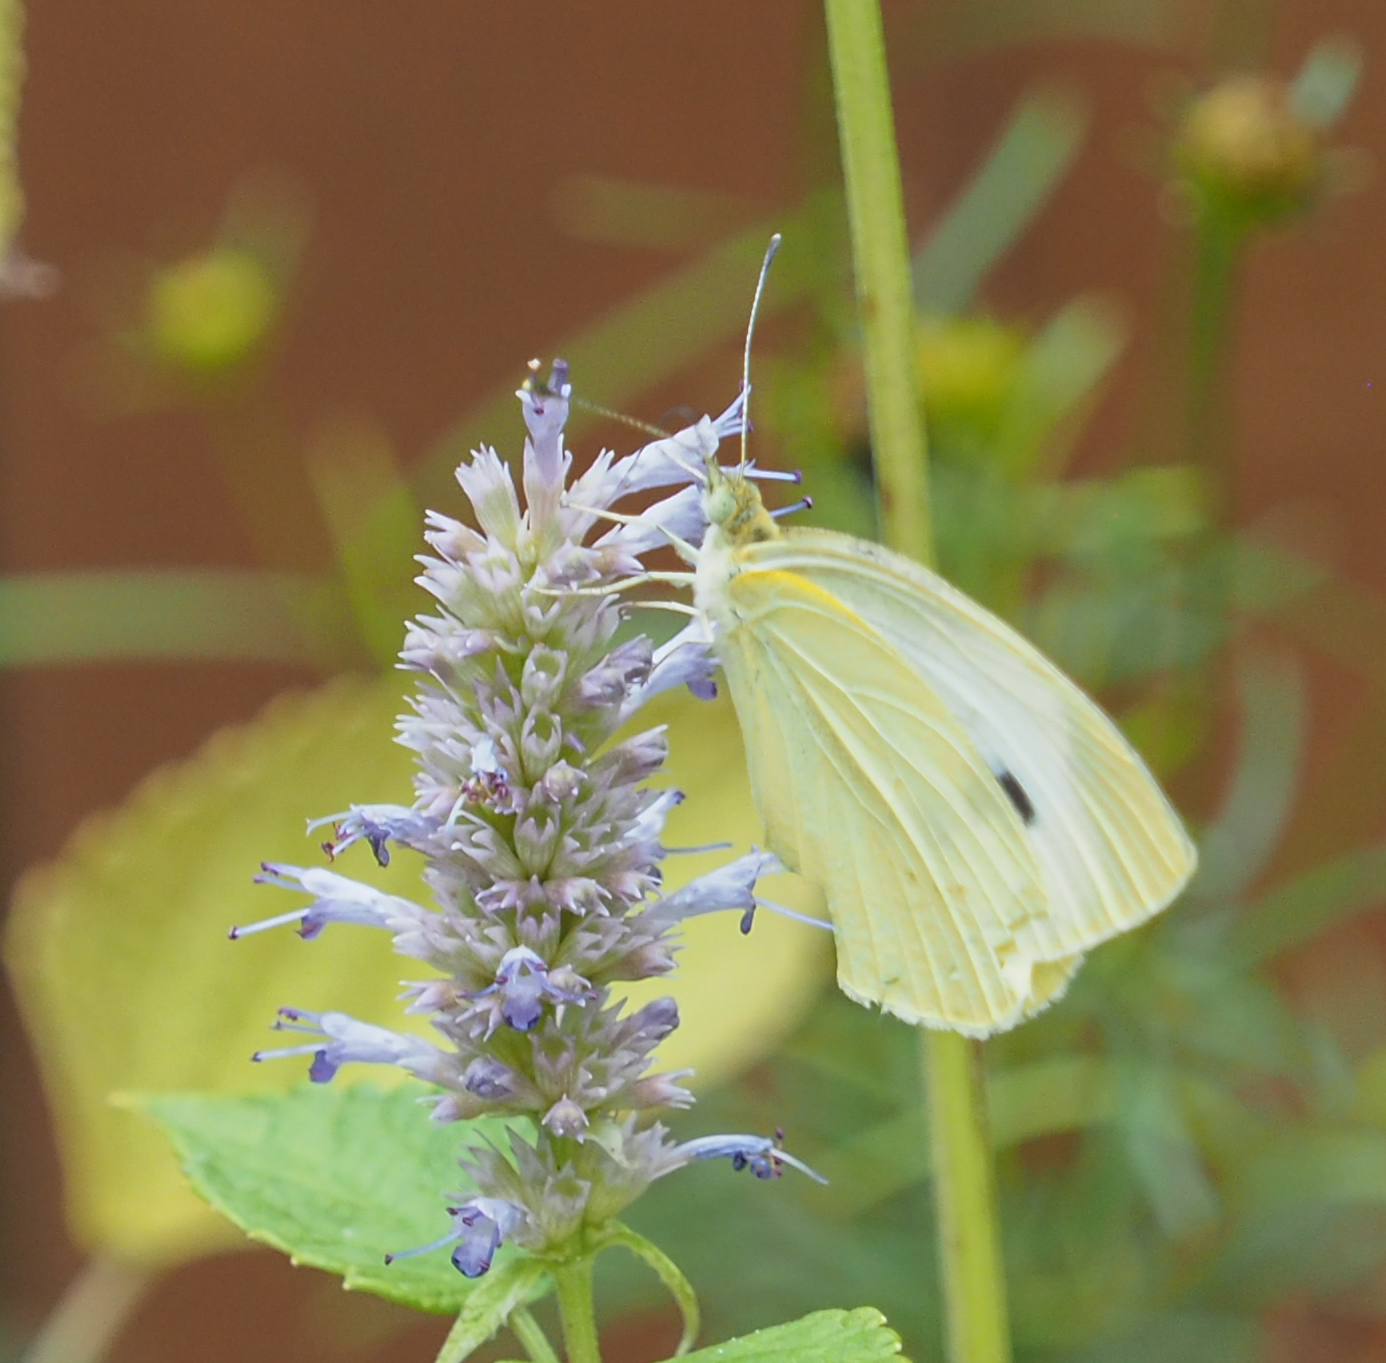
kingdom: Animalia
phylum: Arthropoda
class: Insecta
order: Lepidoptera
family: Pieridae
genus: Pieris
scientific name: Pieris rapae
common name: Small white
